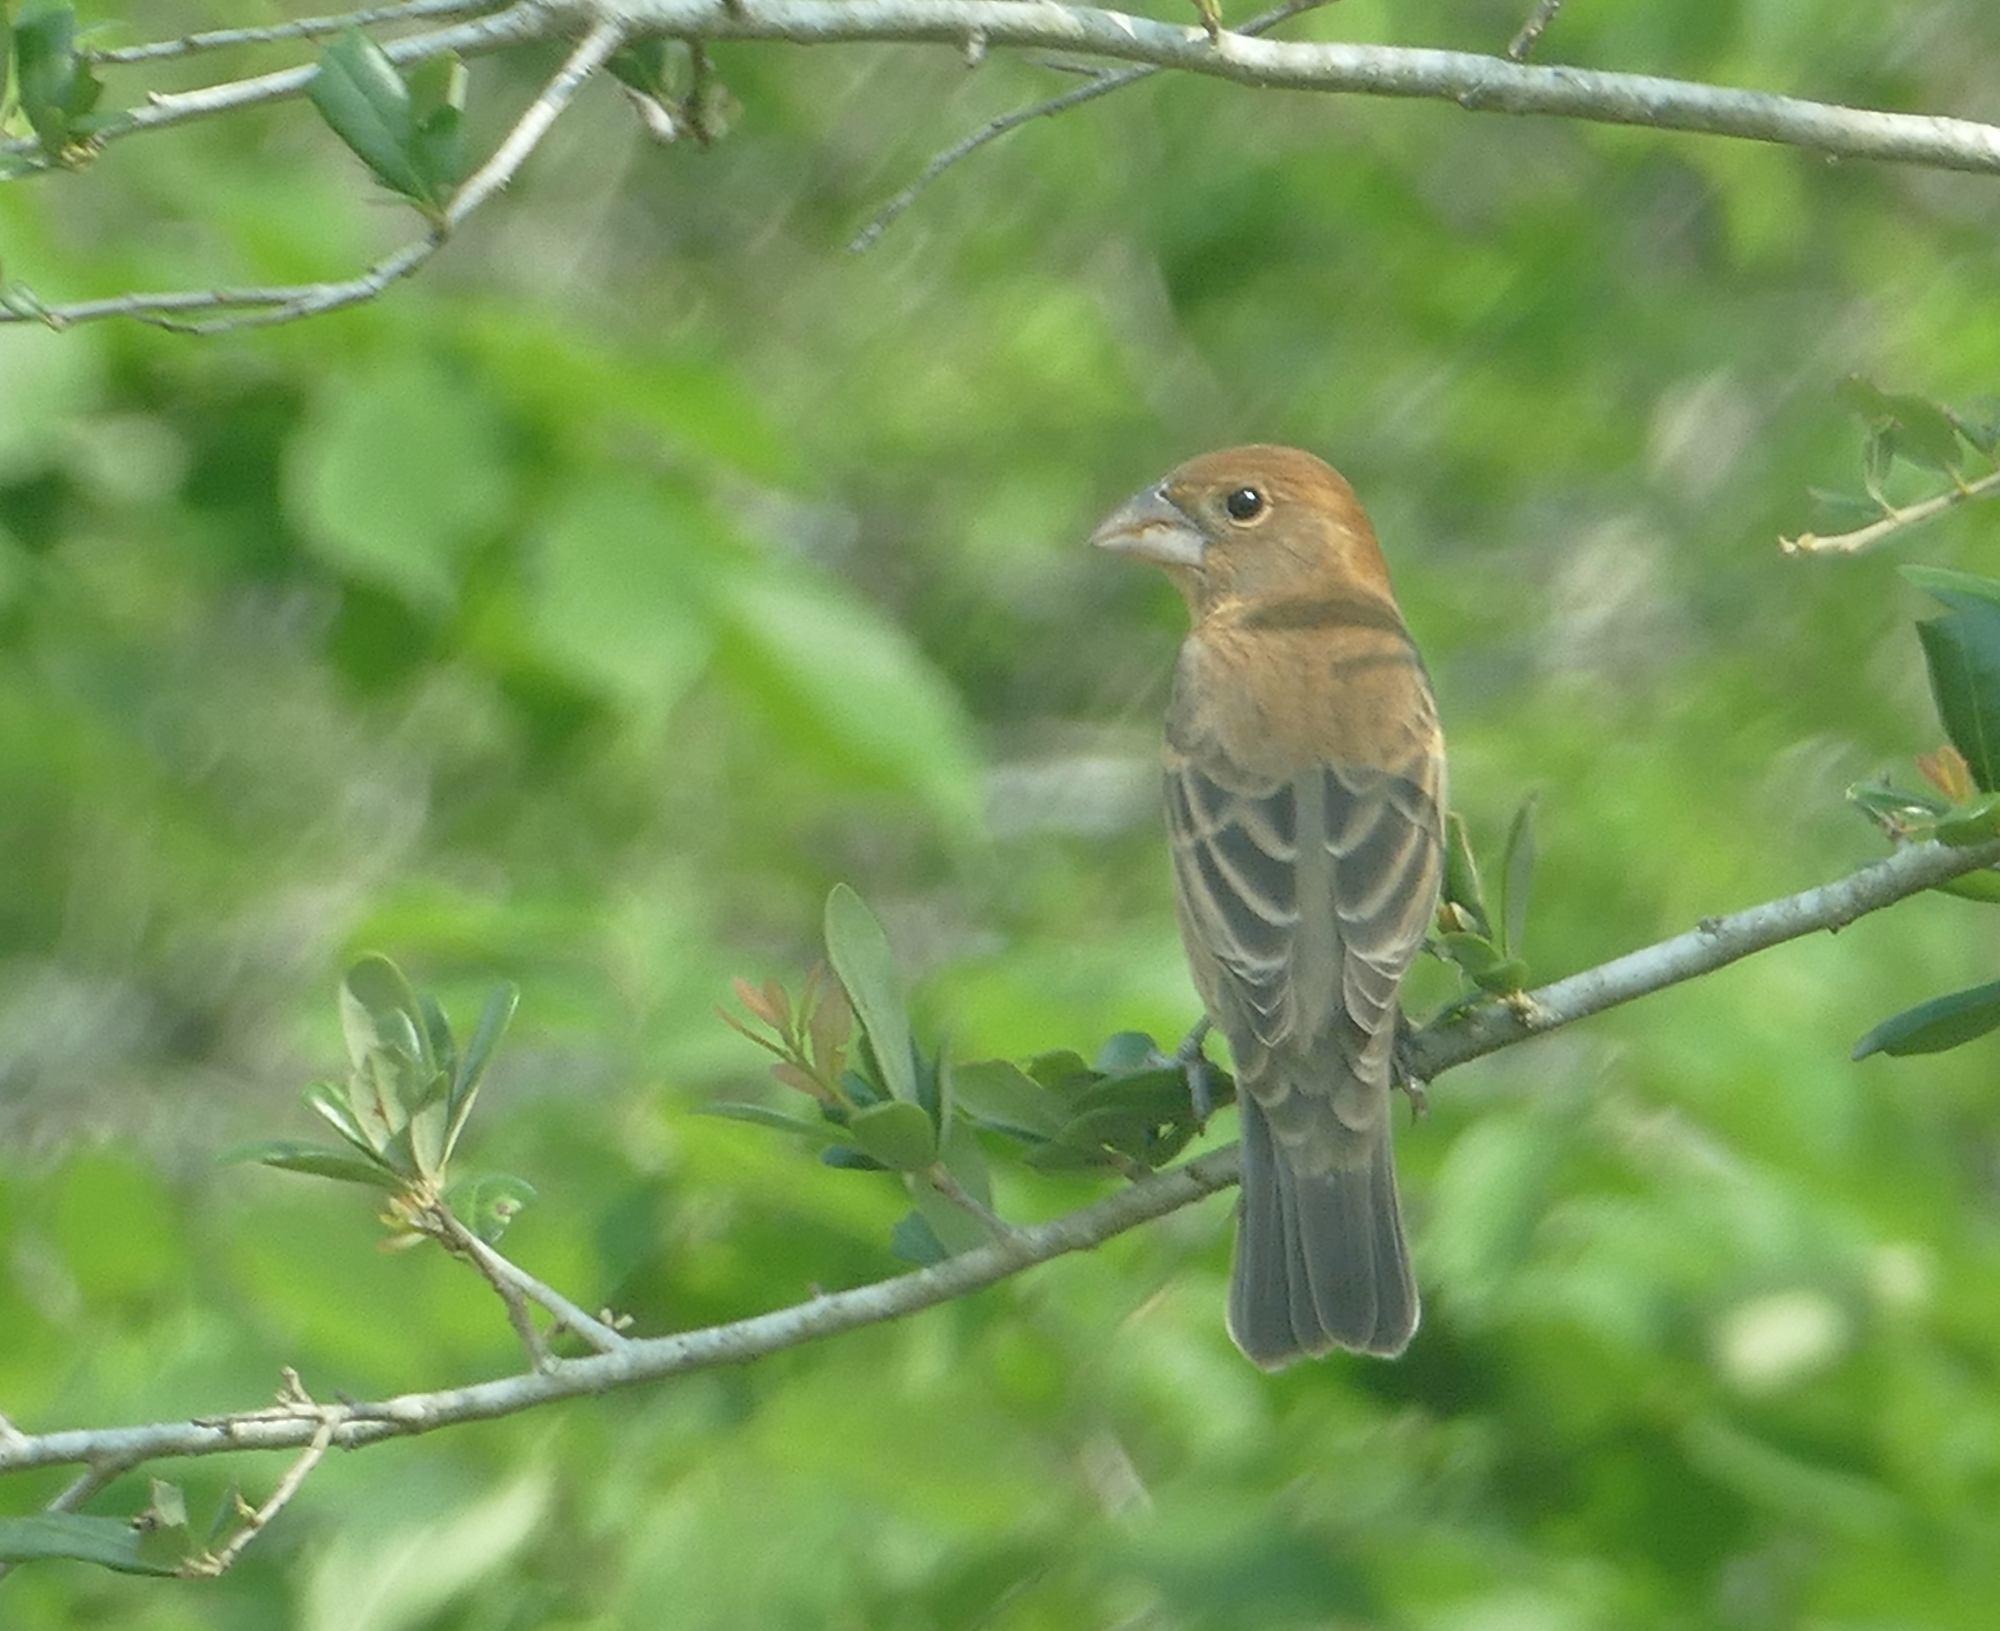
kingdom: Animalia
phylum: Chordata
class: Aves
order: Passeriformes
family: Cardinalidae
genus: Passerina
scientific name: Passerina caerulea
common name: Blue grosbeak
